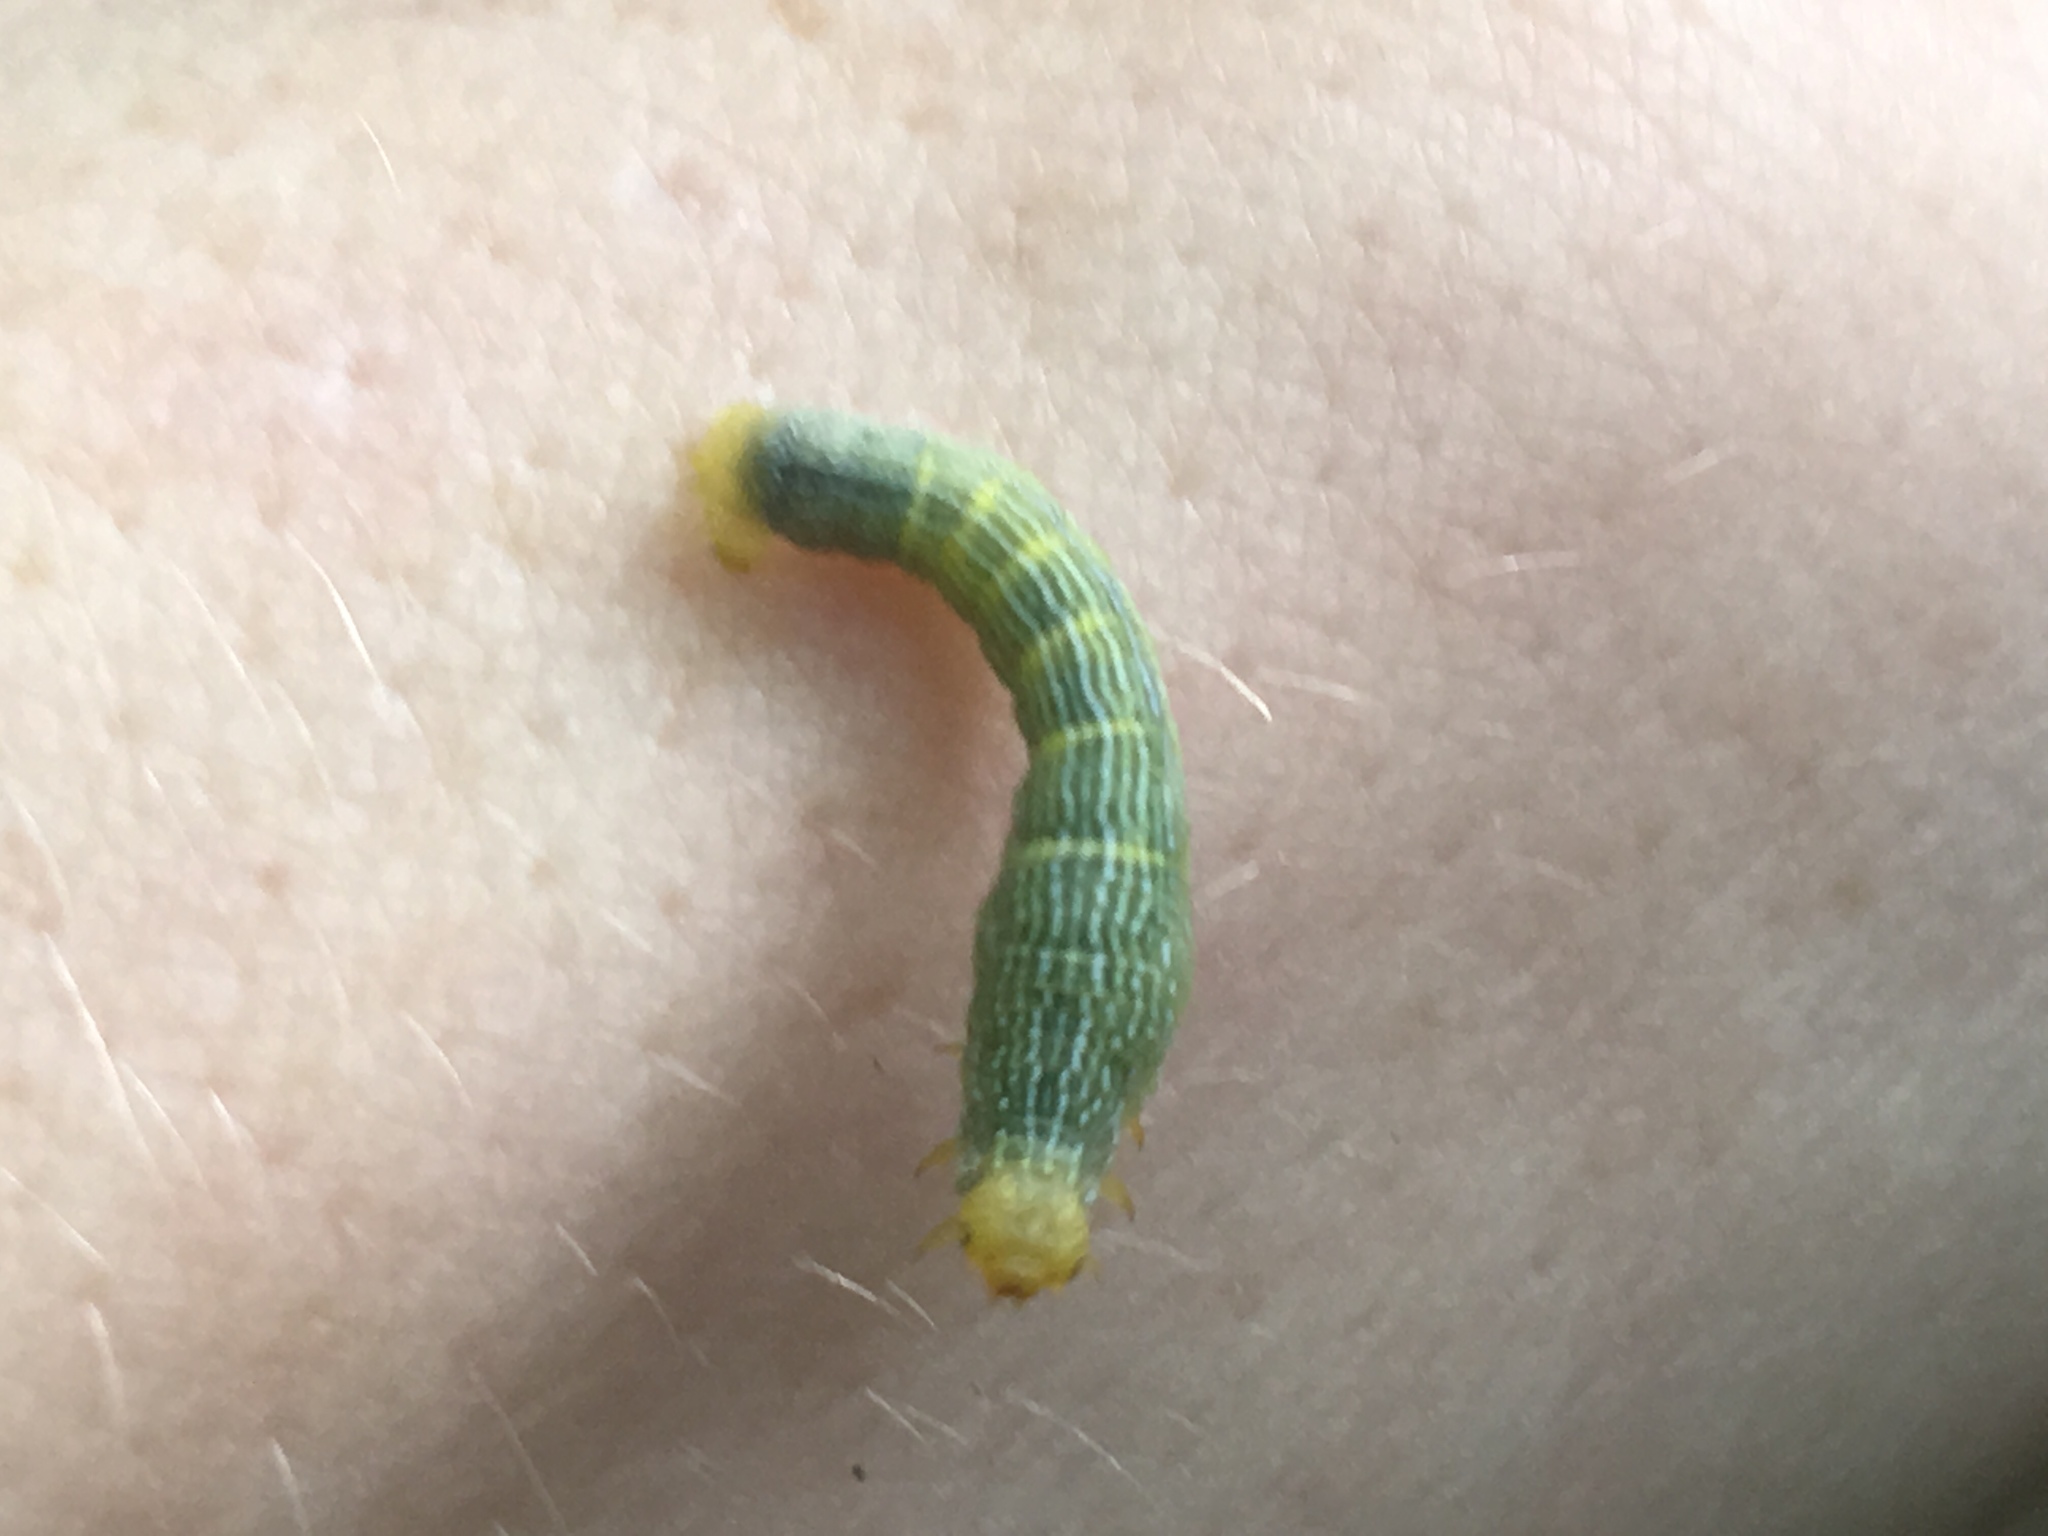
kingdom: Animalia
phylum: Arthropoda
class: Insecta
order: Lepidoptera
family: Geometridae
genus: Epimecis
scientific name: Epimecis hortaria
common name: Tulip-tree beauty
